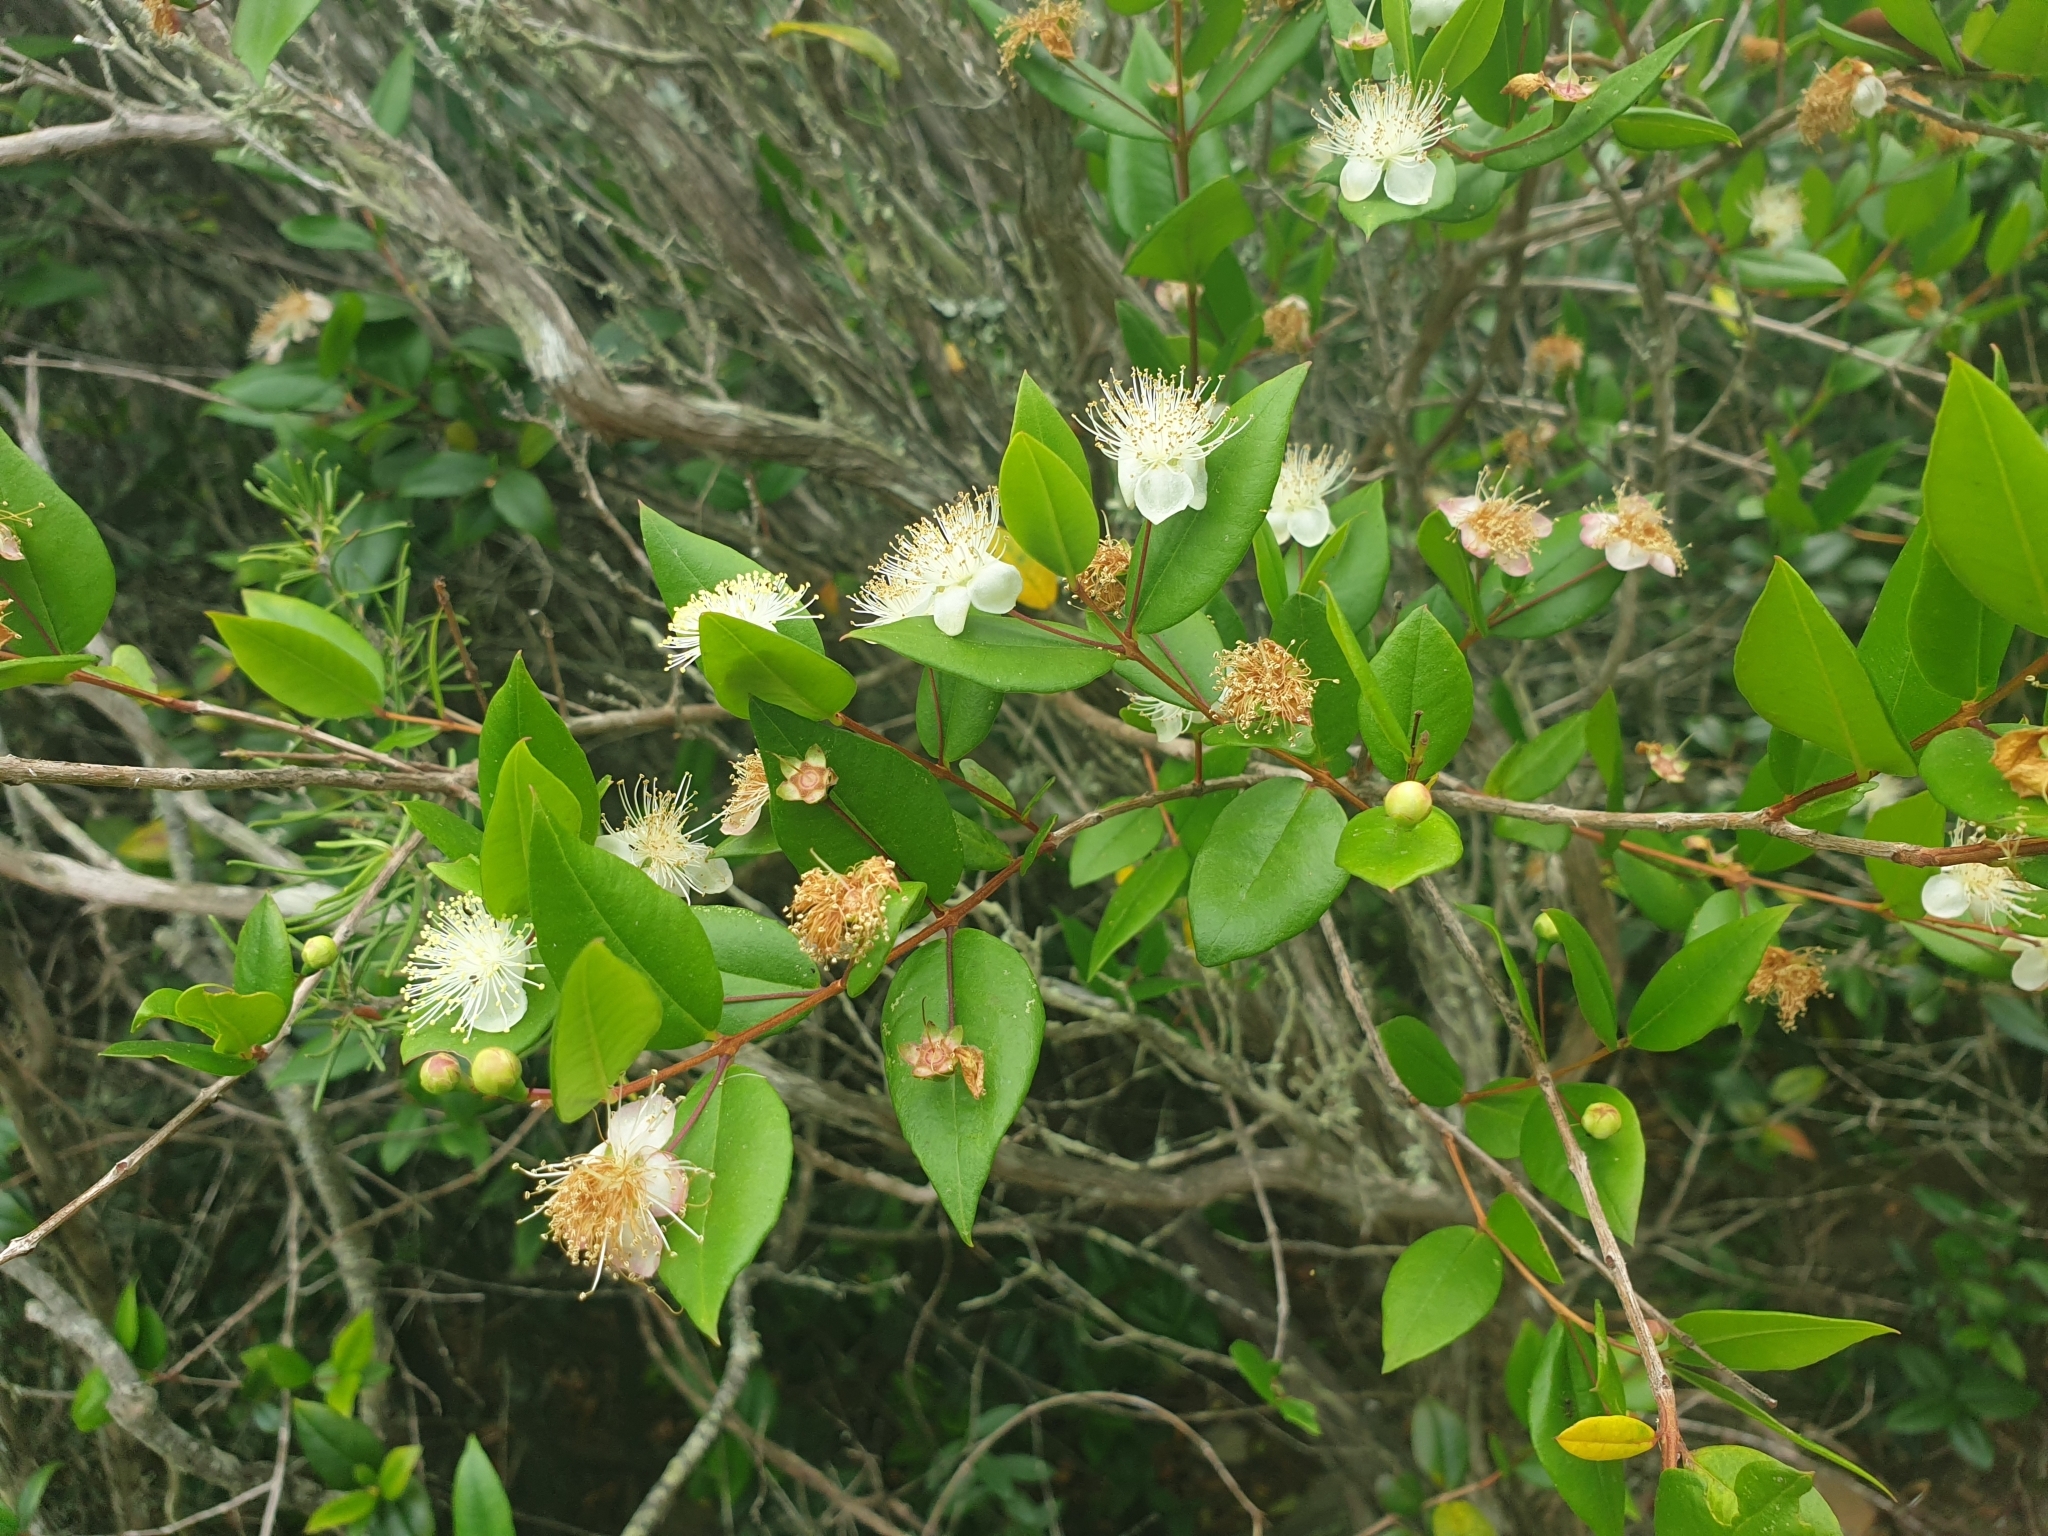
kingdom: Plantae
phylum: Tracheophyta
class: Magnoliopsida
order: Myrtales
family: Myrtaceae
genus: Myrtus
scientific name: Myrtus communis
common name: Myrtle
